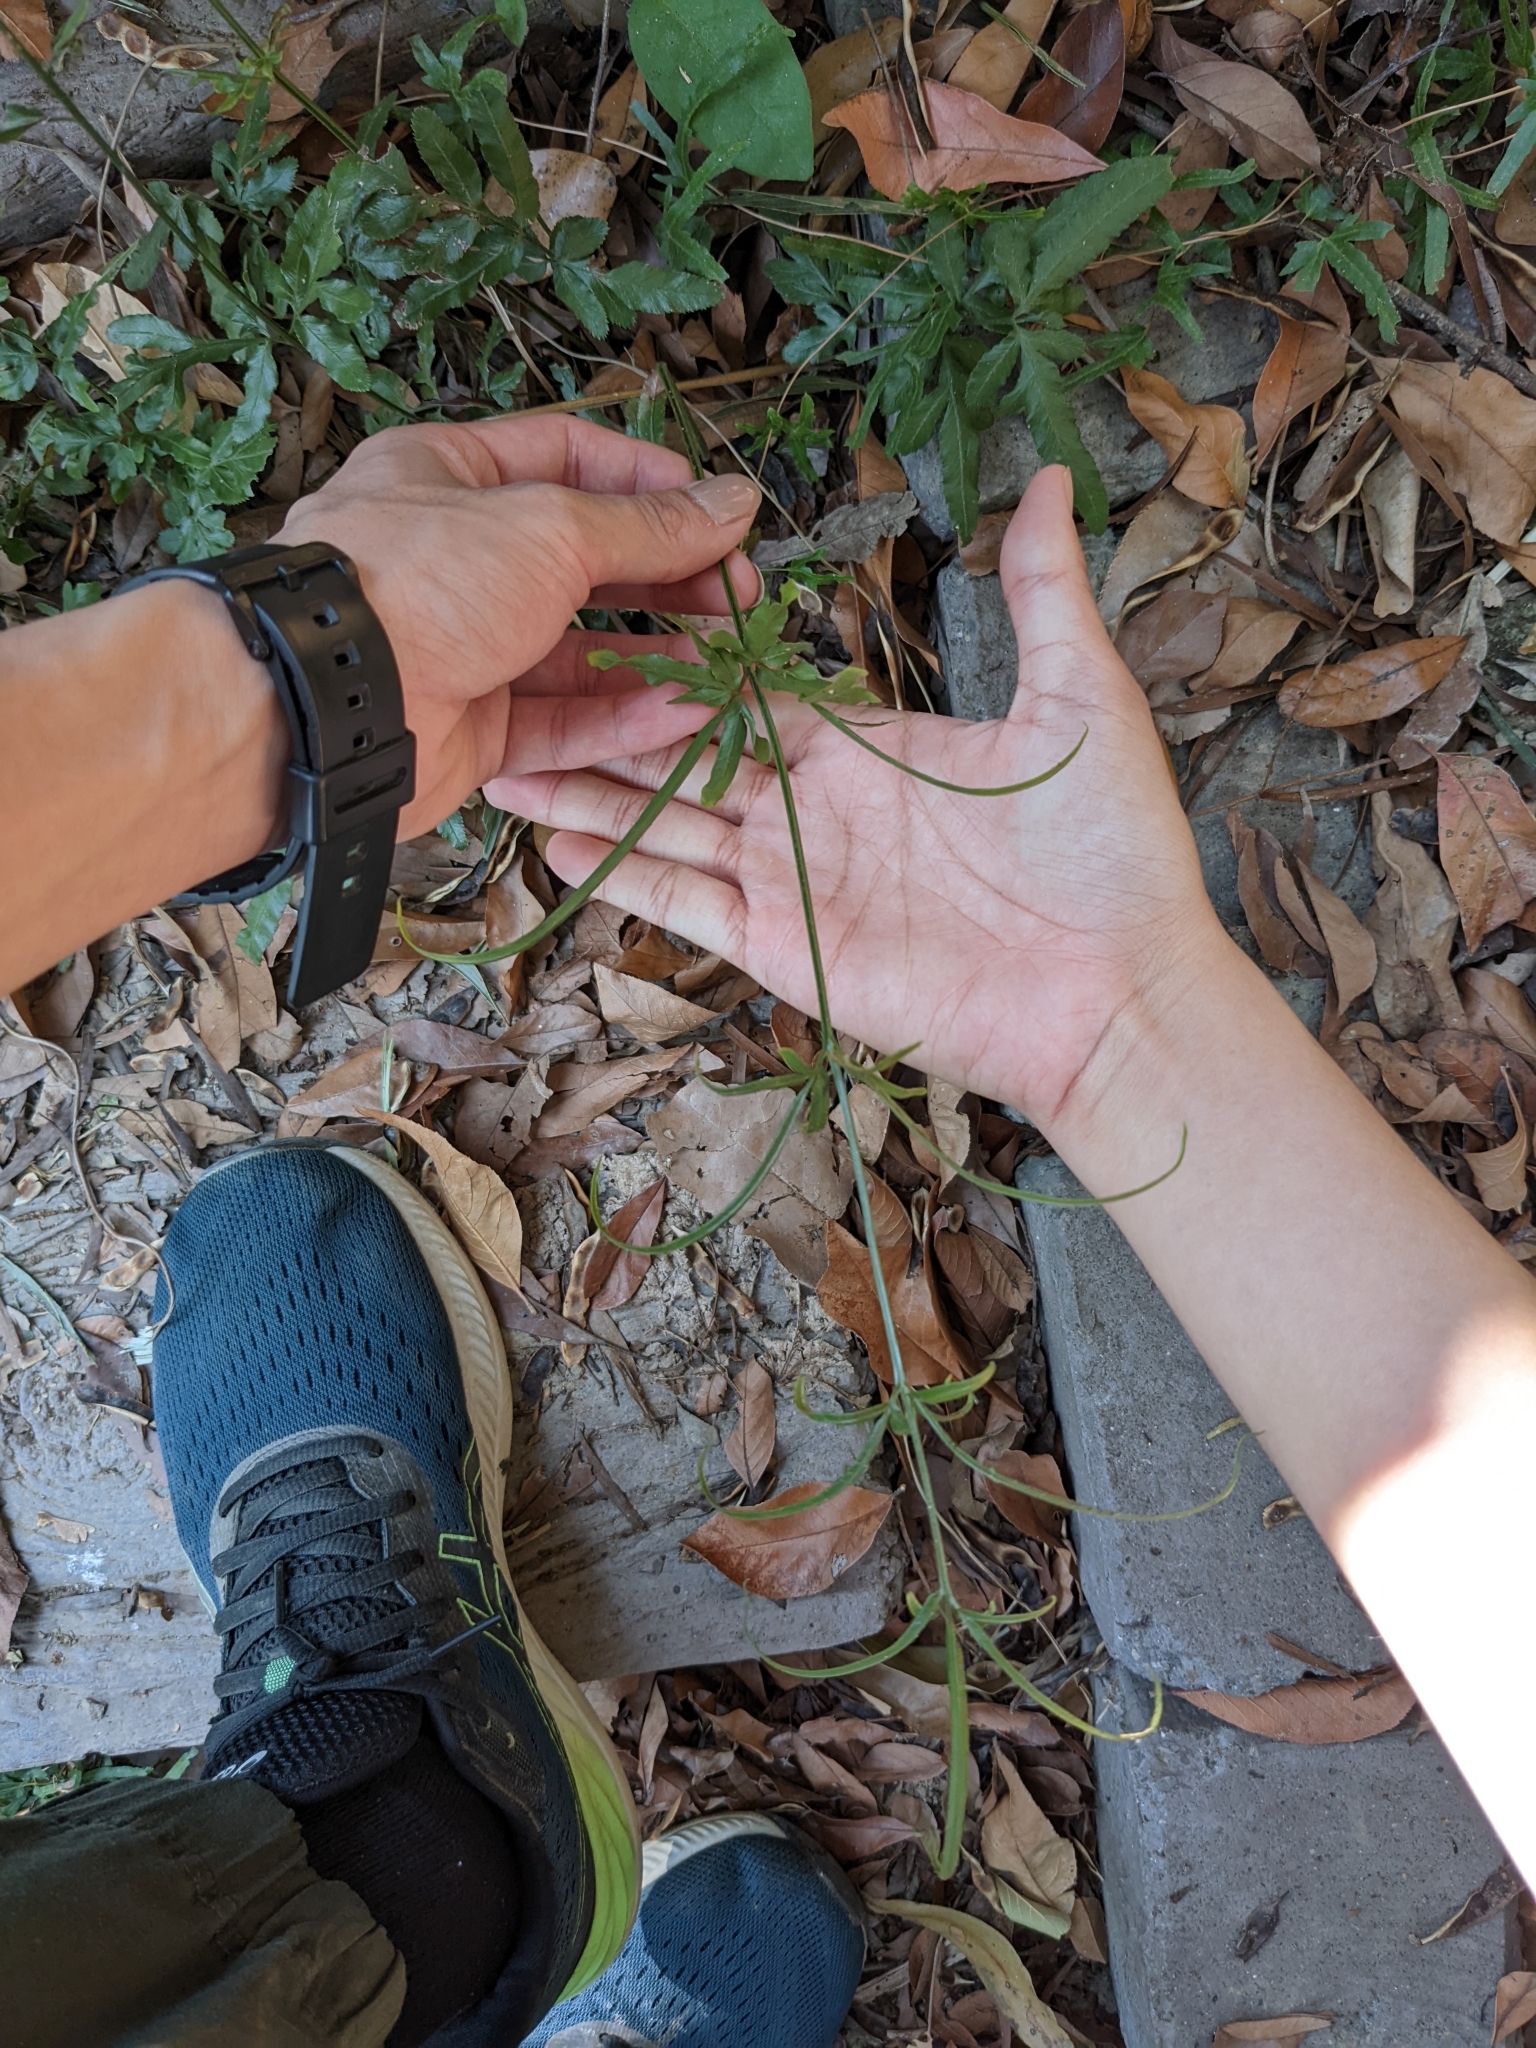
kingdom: Plantae
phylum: Tracheophyta
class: Polypodiopsida
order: Polypodiales
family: Pteridaceae
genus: Pteris
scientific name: Pteris ensiformis
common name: Sword brake
